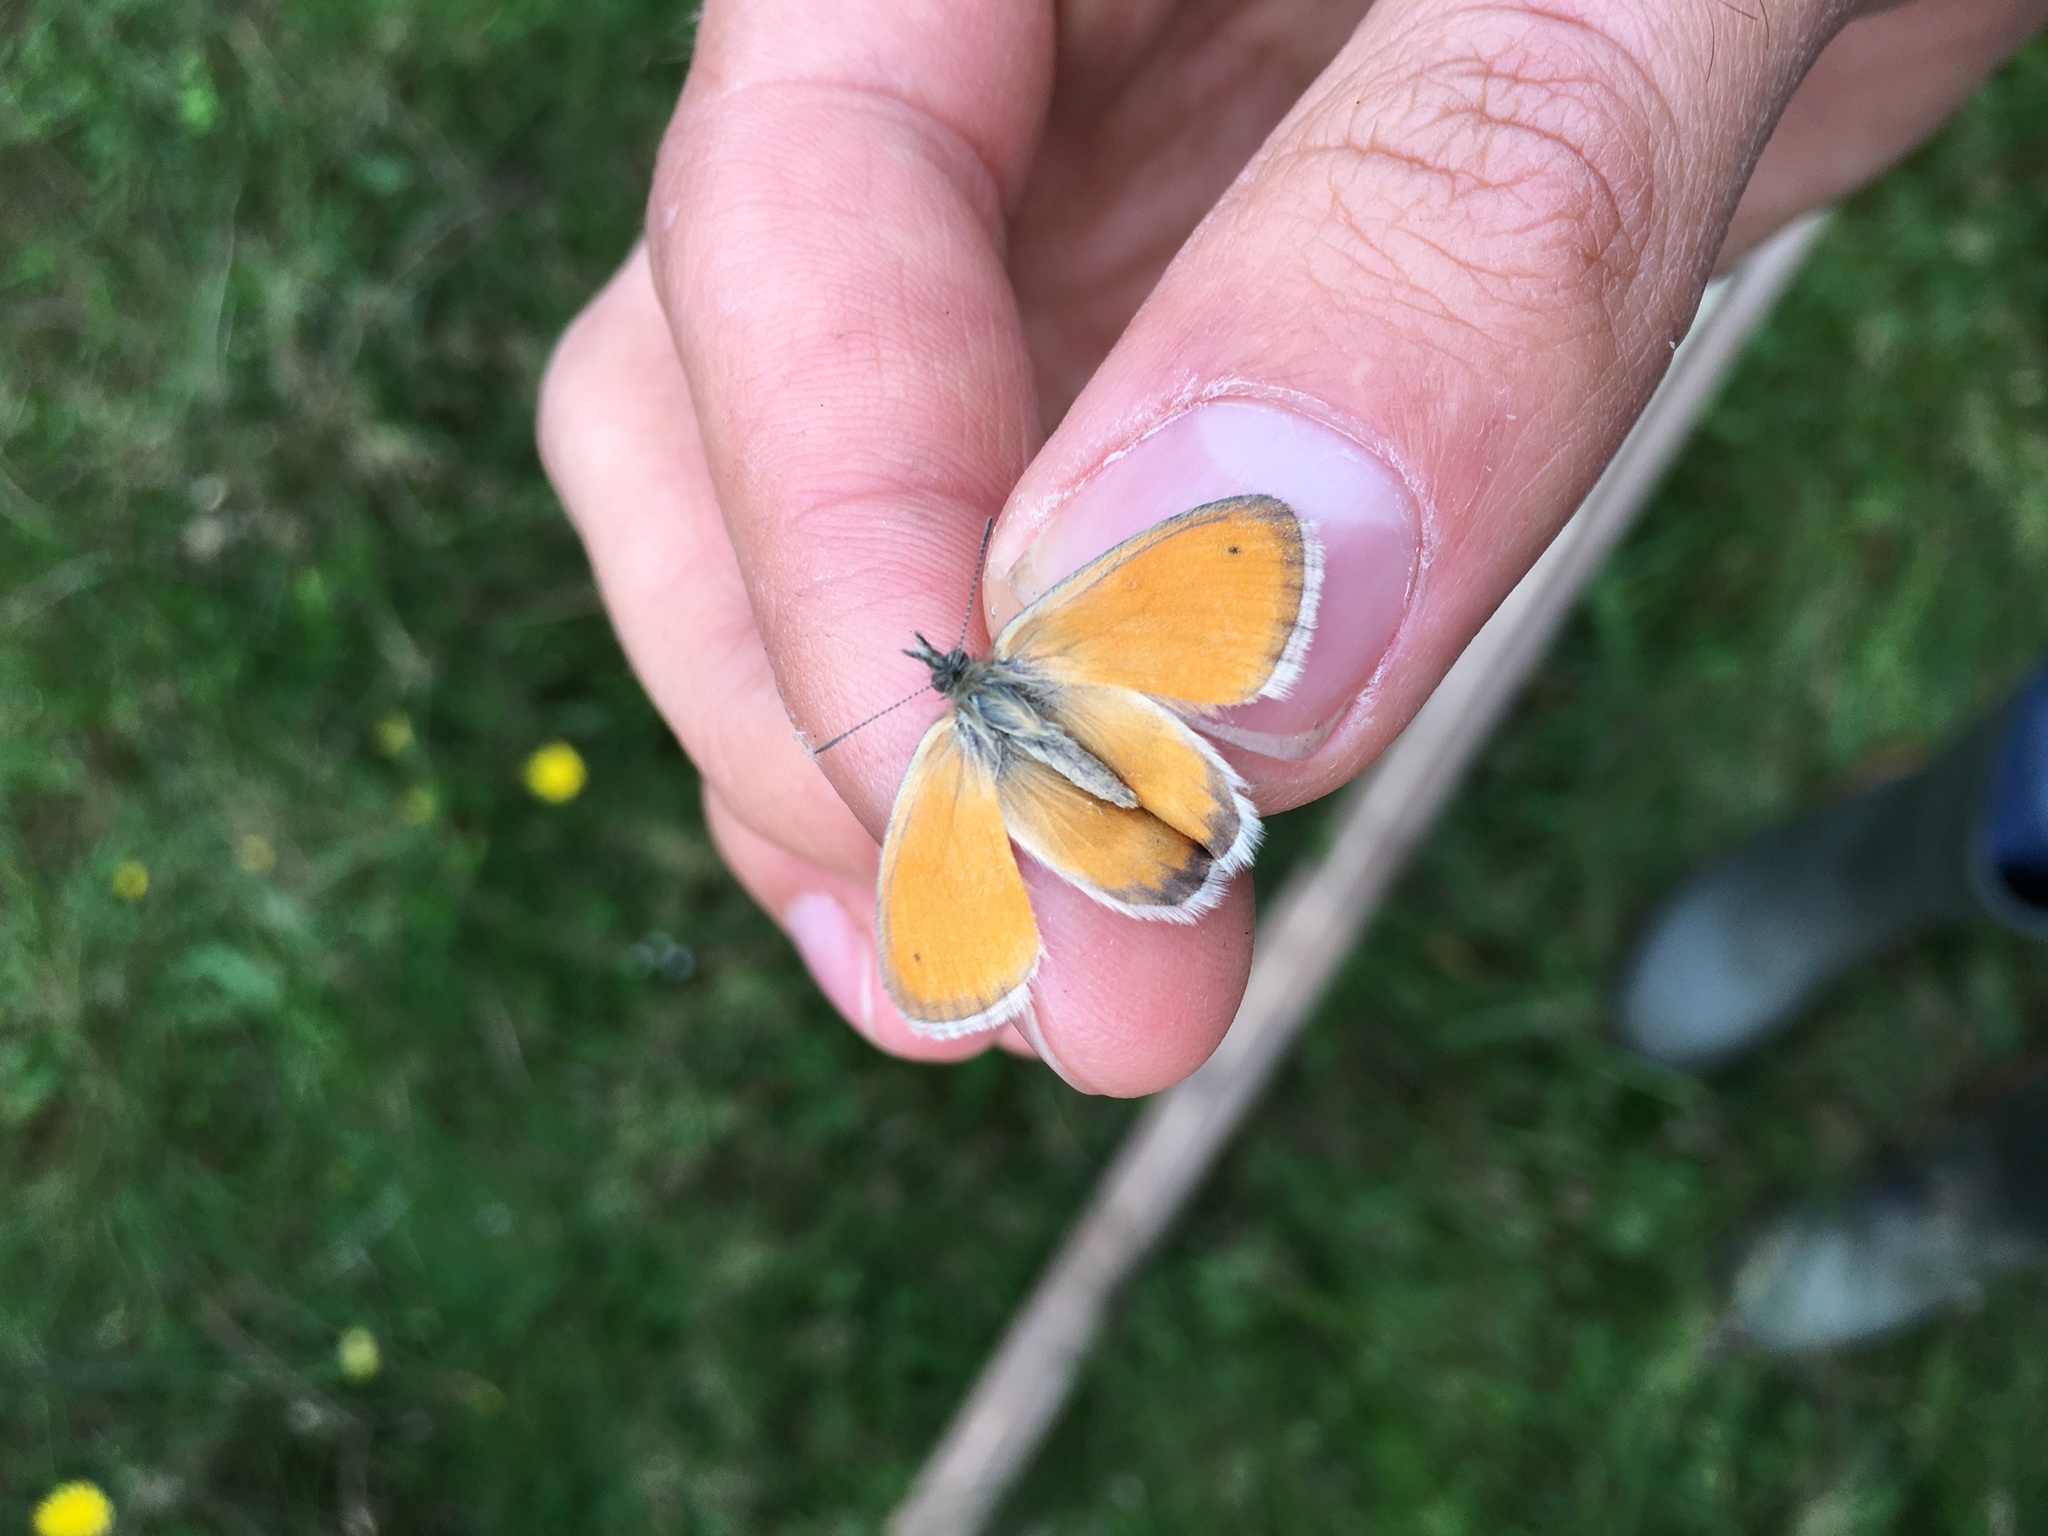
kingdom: Animalia
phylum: Arthropoda
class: Insecta
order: Lepidoptera
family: Nymphalidae
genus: Coenonympha
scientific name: Coenonympha pamphilus
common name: Small heath
